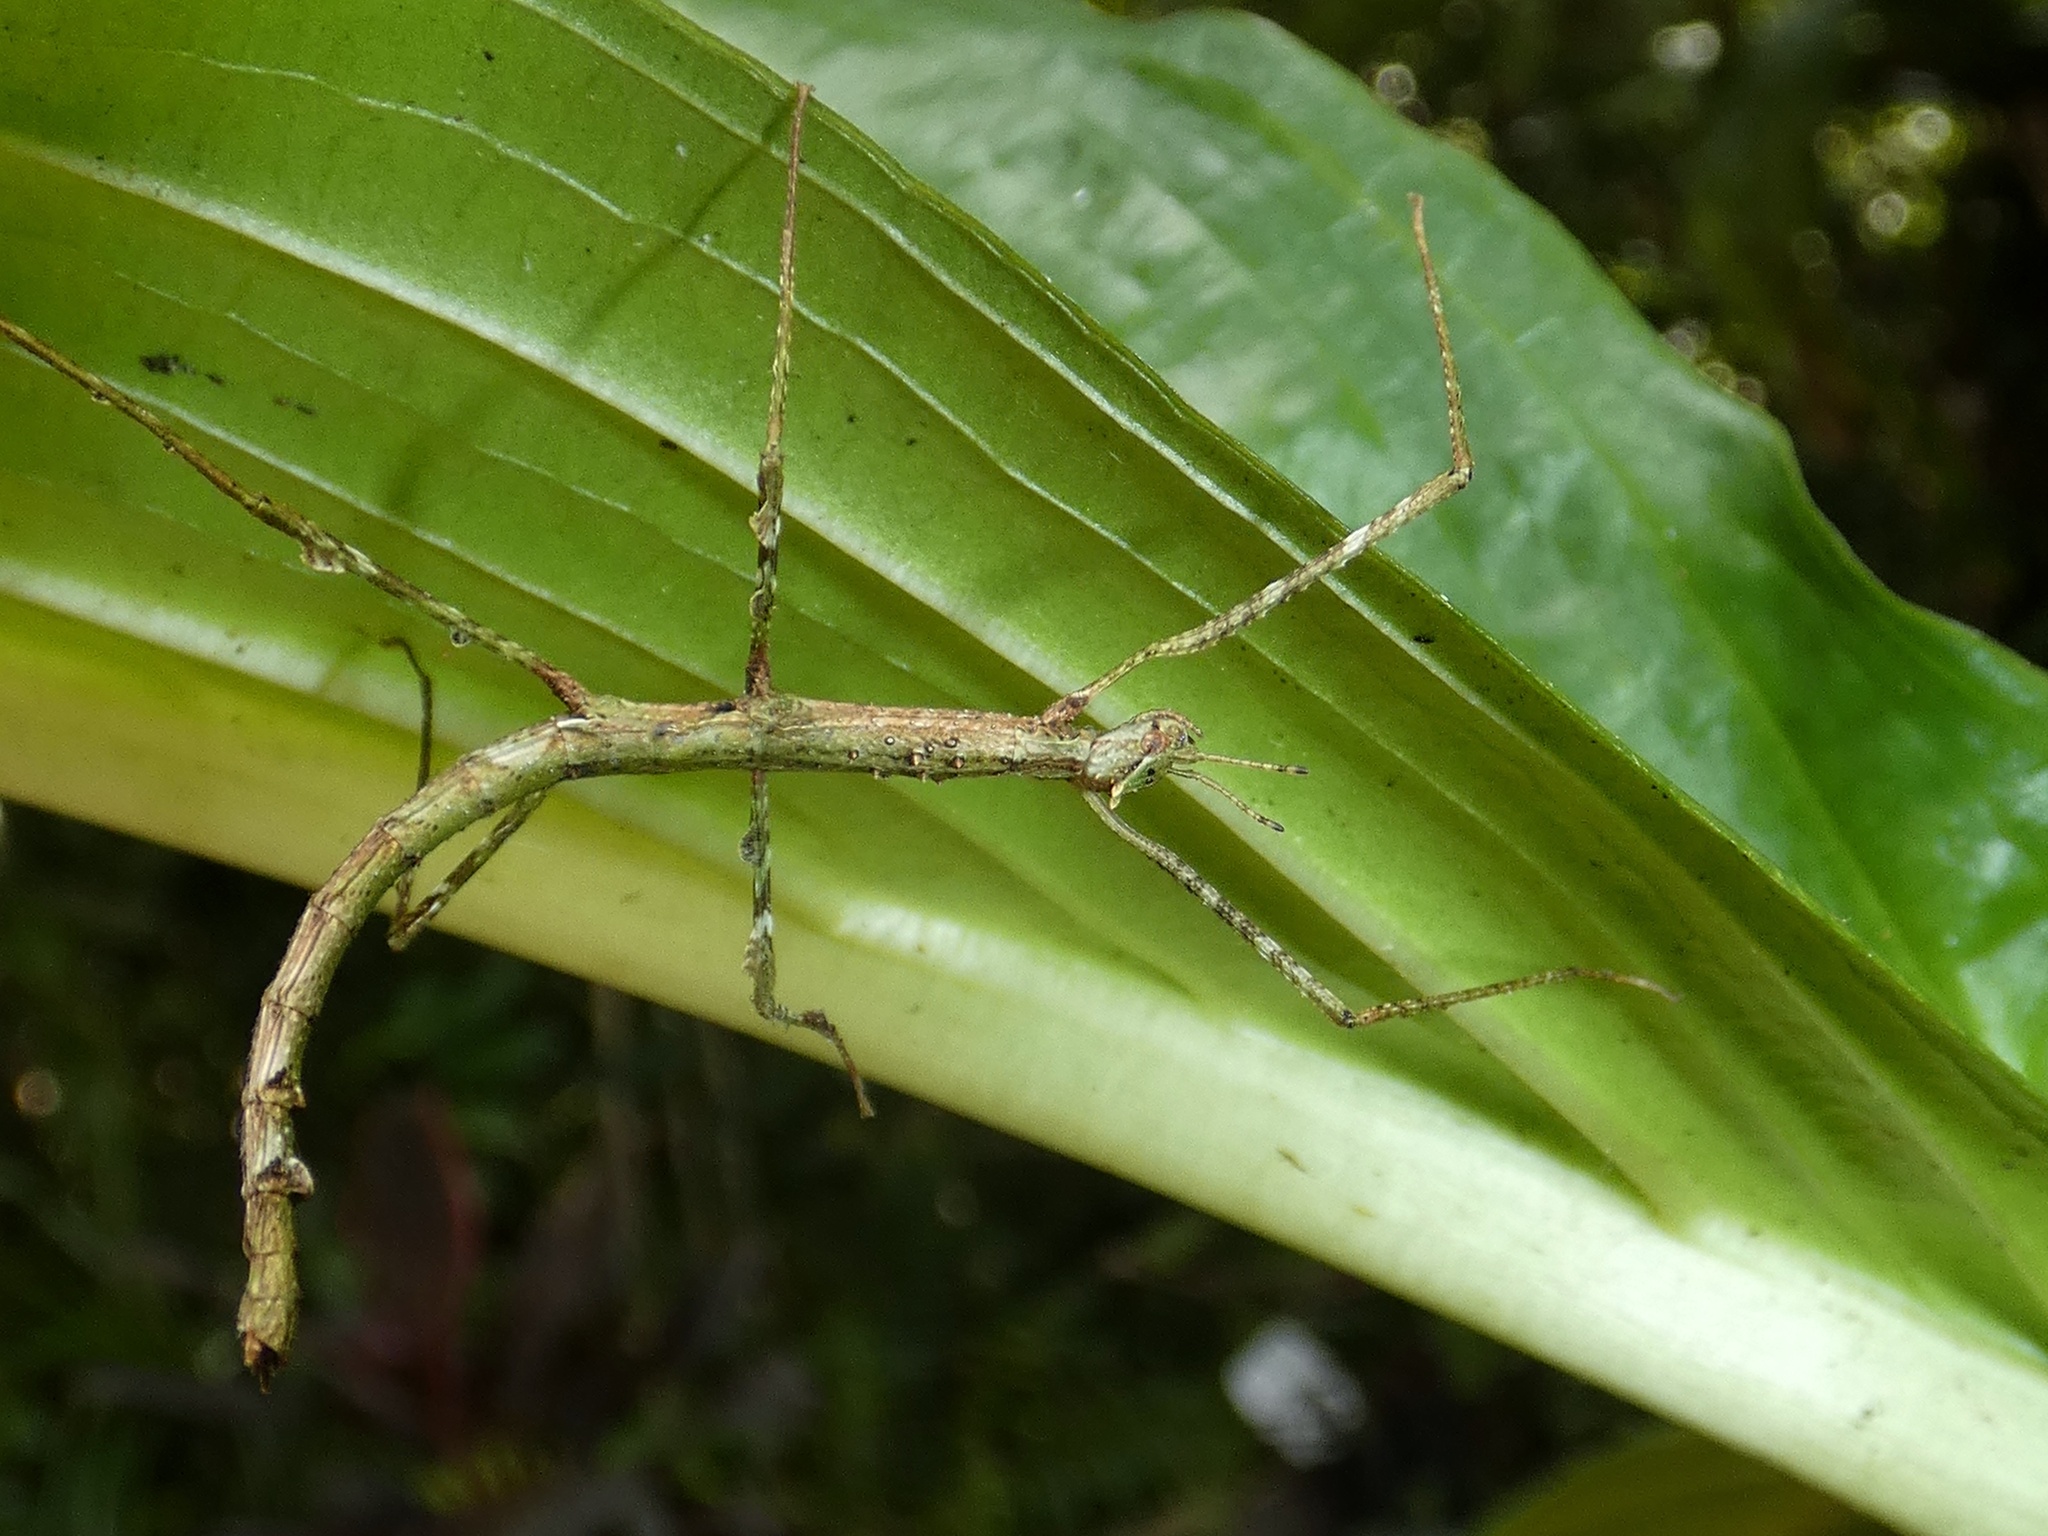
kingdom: Animalia
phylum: Arthropoda
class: Insecta
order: Phasmida
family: Phasmatidae
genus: Onchestus
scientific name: Onchestus rentzi
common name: Rentz's stick-insect
